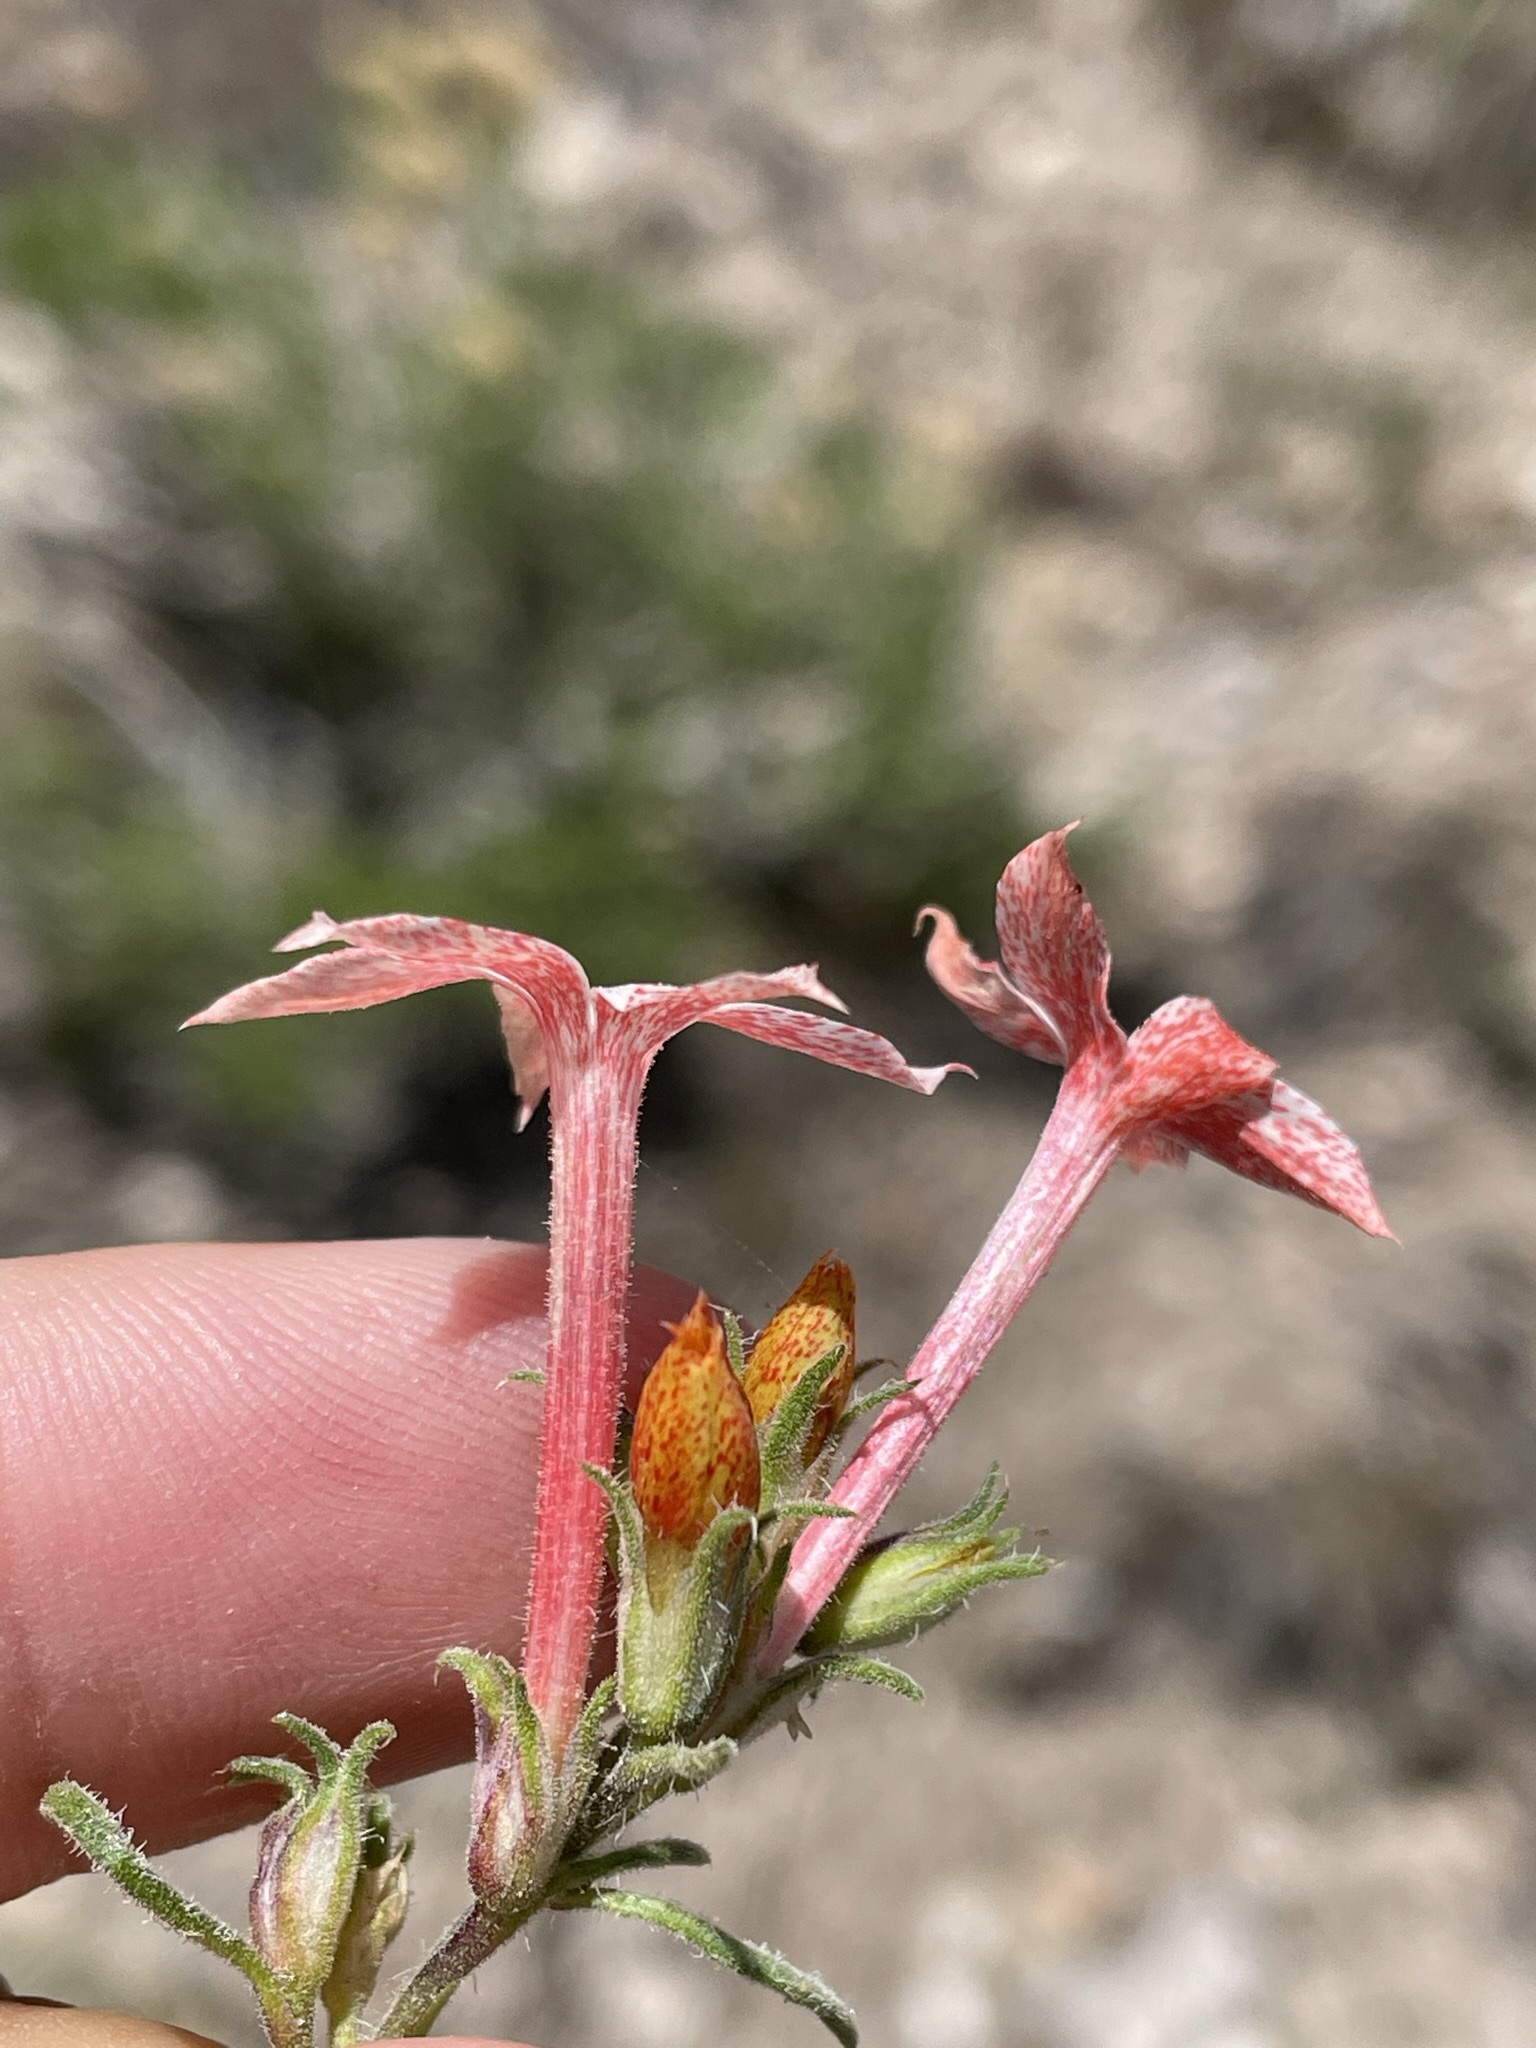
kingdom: Plantae
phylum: Tracheophyta
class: Magnoliopsida
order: Ericales
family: Polemoniaceae
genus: Ipomopsis
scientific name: Ipomopsis tenuituba
